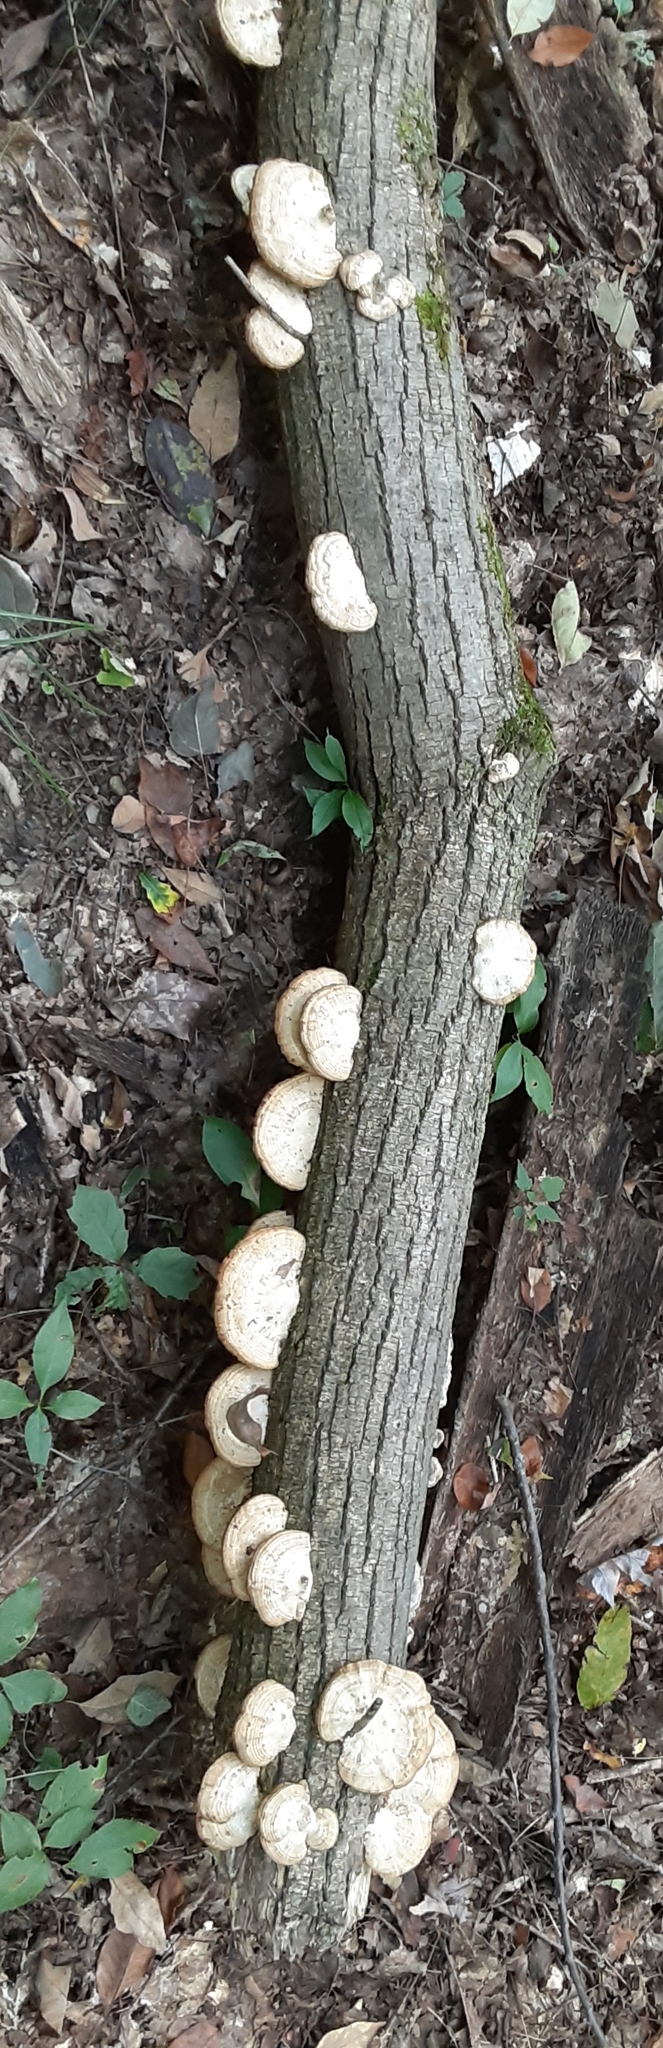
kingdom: Fungi
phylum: Basidiomycota
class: Agaricomycetes
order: Polyporales
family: Polyporaceae
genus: Daedaleopsis
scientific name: Daedaleopsis confragosa
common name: Blushing bracket
